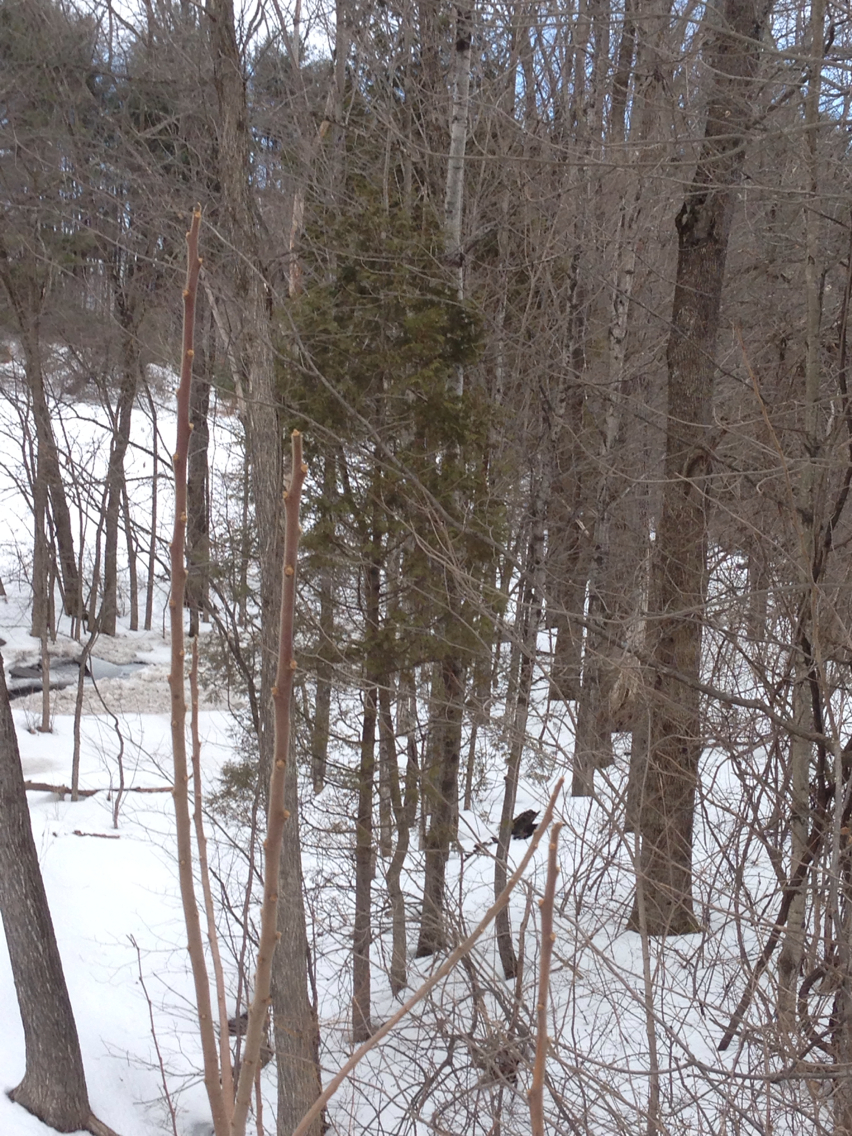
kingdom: Plantae
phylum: Tracheophyta
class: Pinopsida
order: Pinales
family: Cupressaceae
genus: Thuja
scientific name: Thuja occidentalis
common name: Northern white-cedar
